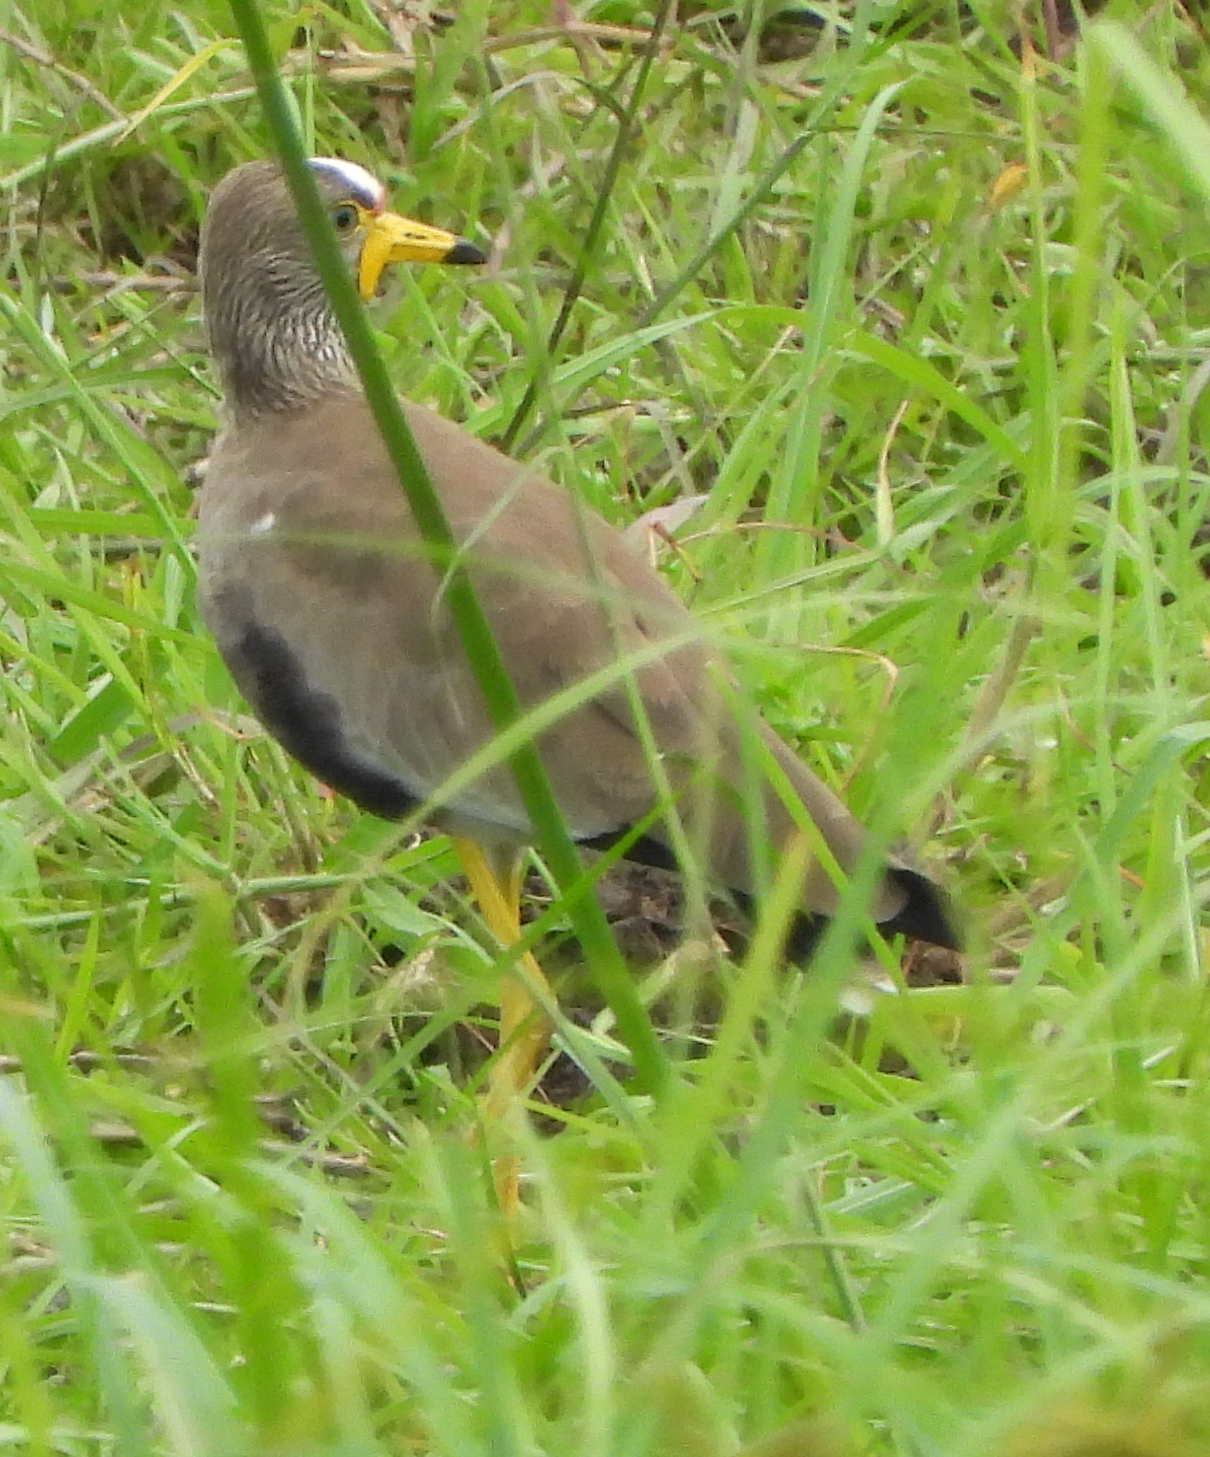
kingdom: Animalia
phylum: Chordata
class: Aves
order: Charadriiformes
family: Charadriidae
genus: Vanellus
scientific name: Vanellus senegallus
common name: African wattled lapwing
